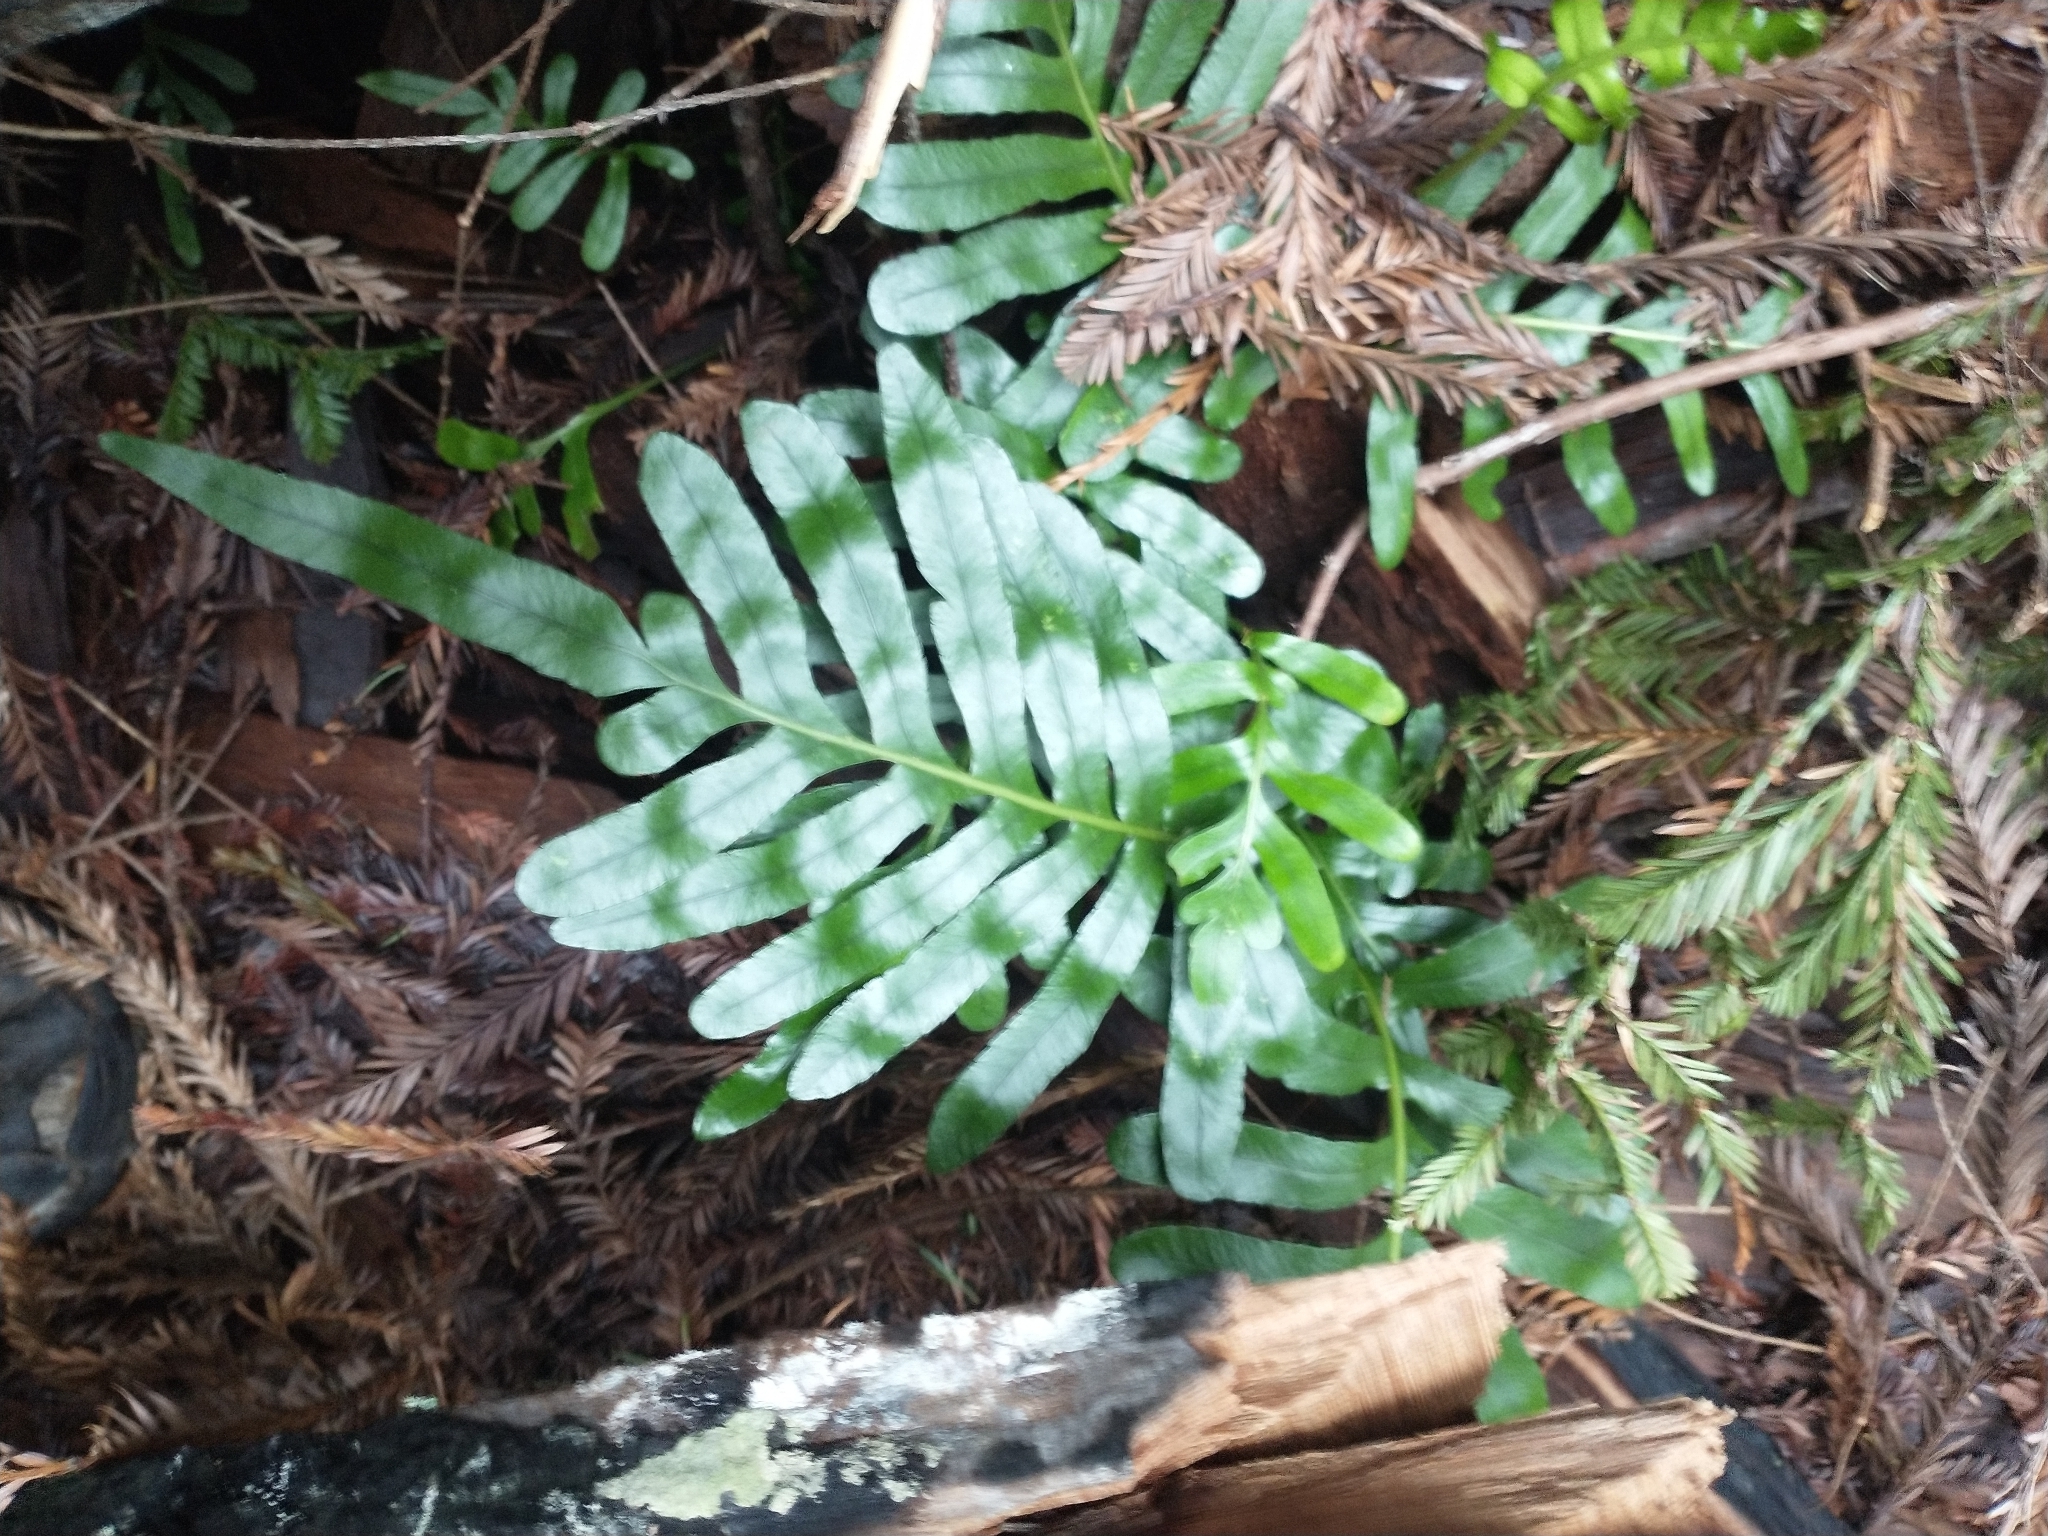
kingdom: Plantae
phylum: Tracheophyta
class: Polypodiopsida
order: Polypodiales
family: Polypodiaceae
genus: Polypodium
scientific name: Polypodium scouleri
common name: Scouler's polypody
